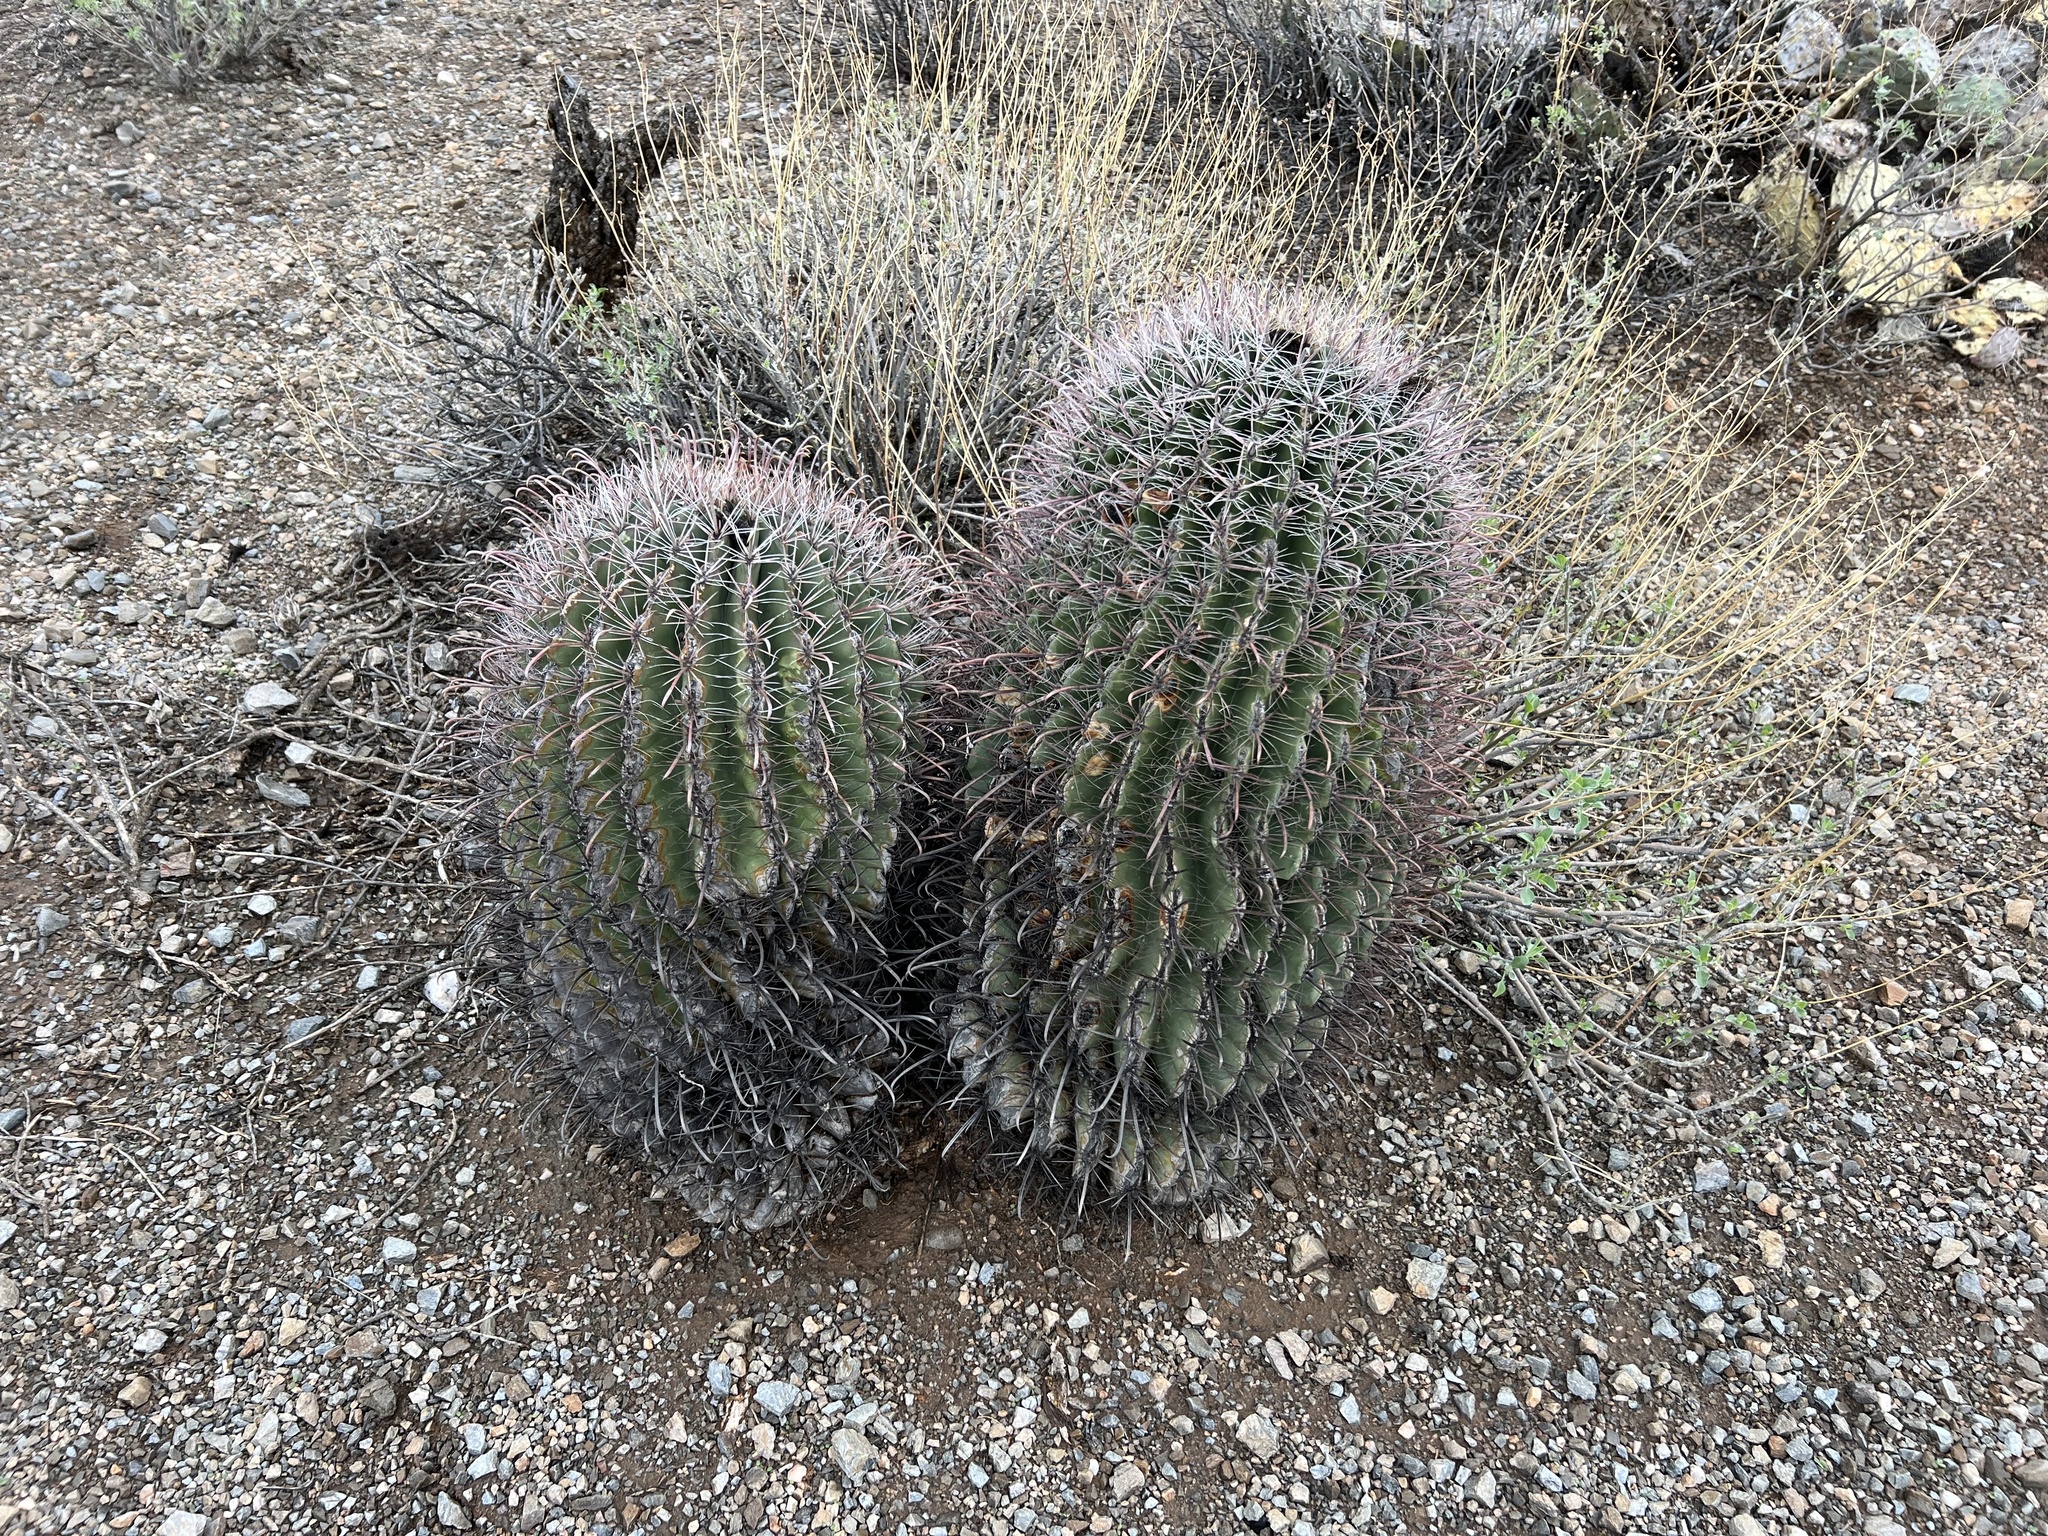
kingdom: Plantae
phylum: Tracheophyta
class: Magnoliopsida
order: Caryophyllales
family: Cactaceae
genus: Ferocactus
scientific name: Ferocactus wislizeni
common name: Candy barrel cactus
